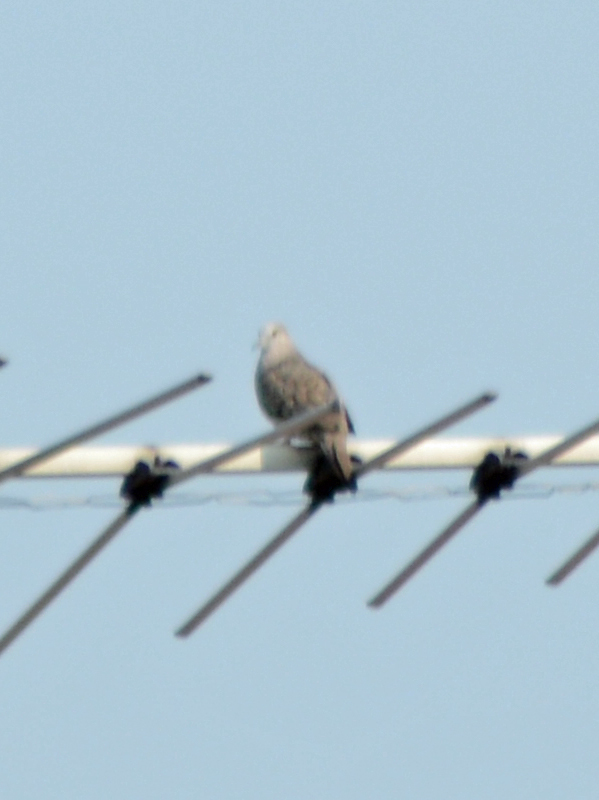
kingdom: Animalia
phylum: Chordata
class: Aves
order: Columbiformes
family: Columbidae
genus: Columbina
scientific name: Columbina inca
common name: Inca dove
